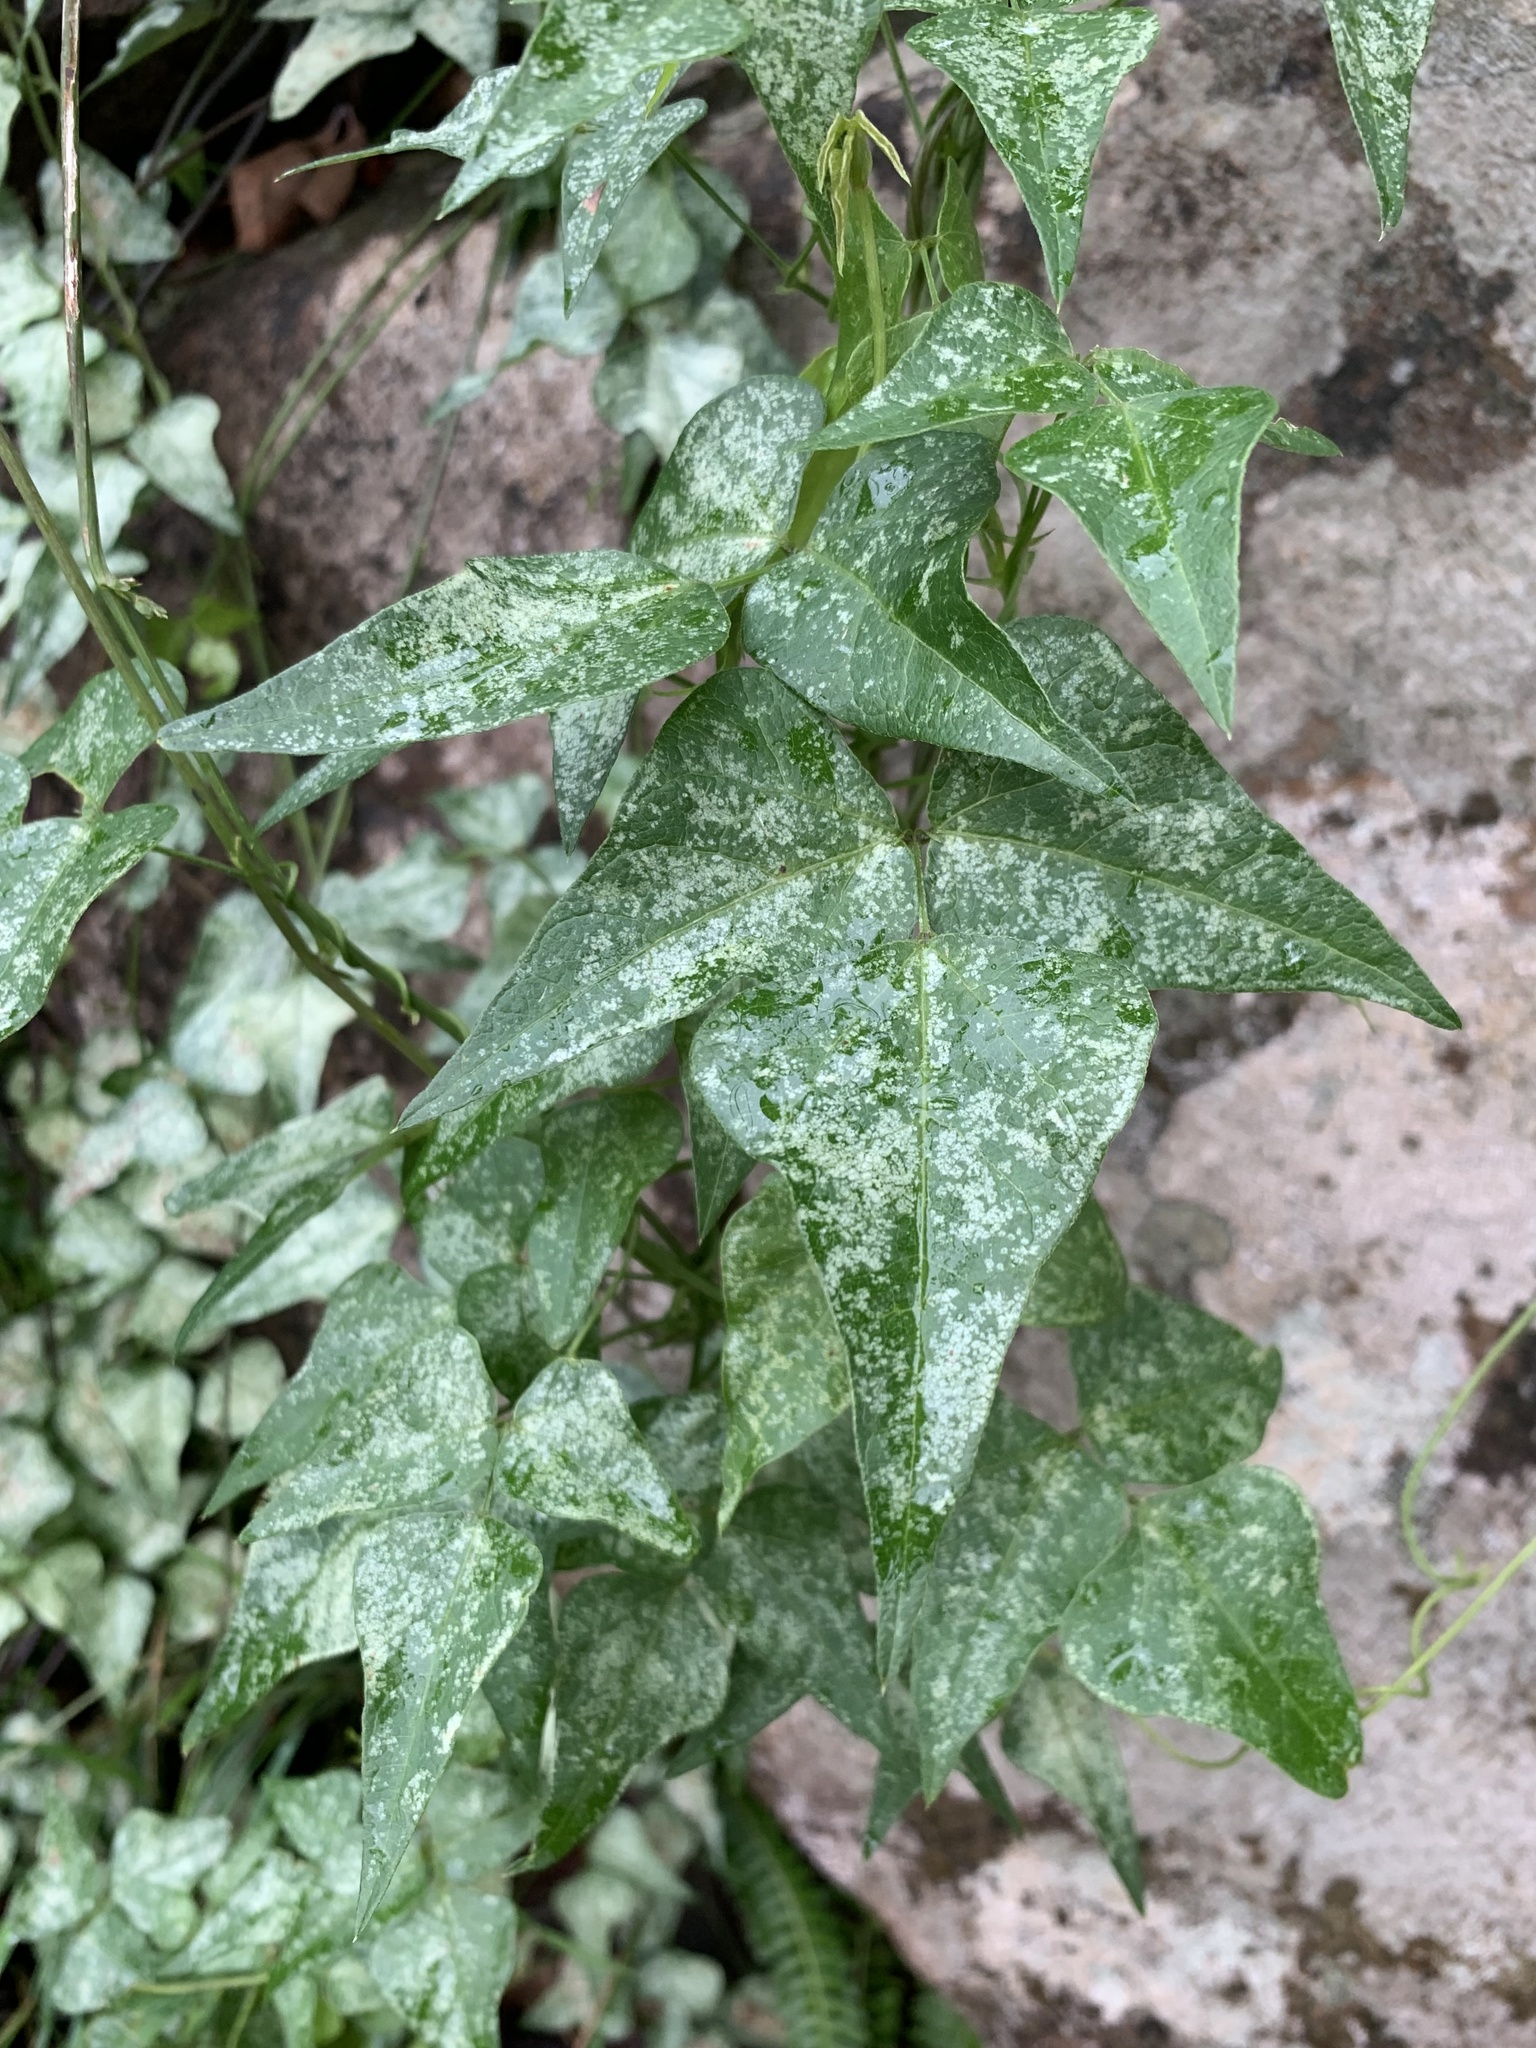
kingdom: Plantae
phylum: Tracheophyta
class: Magnoliopsida
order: Fabales
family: Fabaceae
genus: Dipogon
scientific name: Dipogon lignosus
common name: Okie bean
